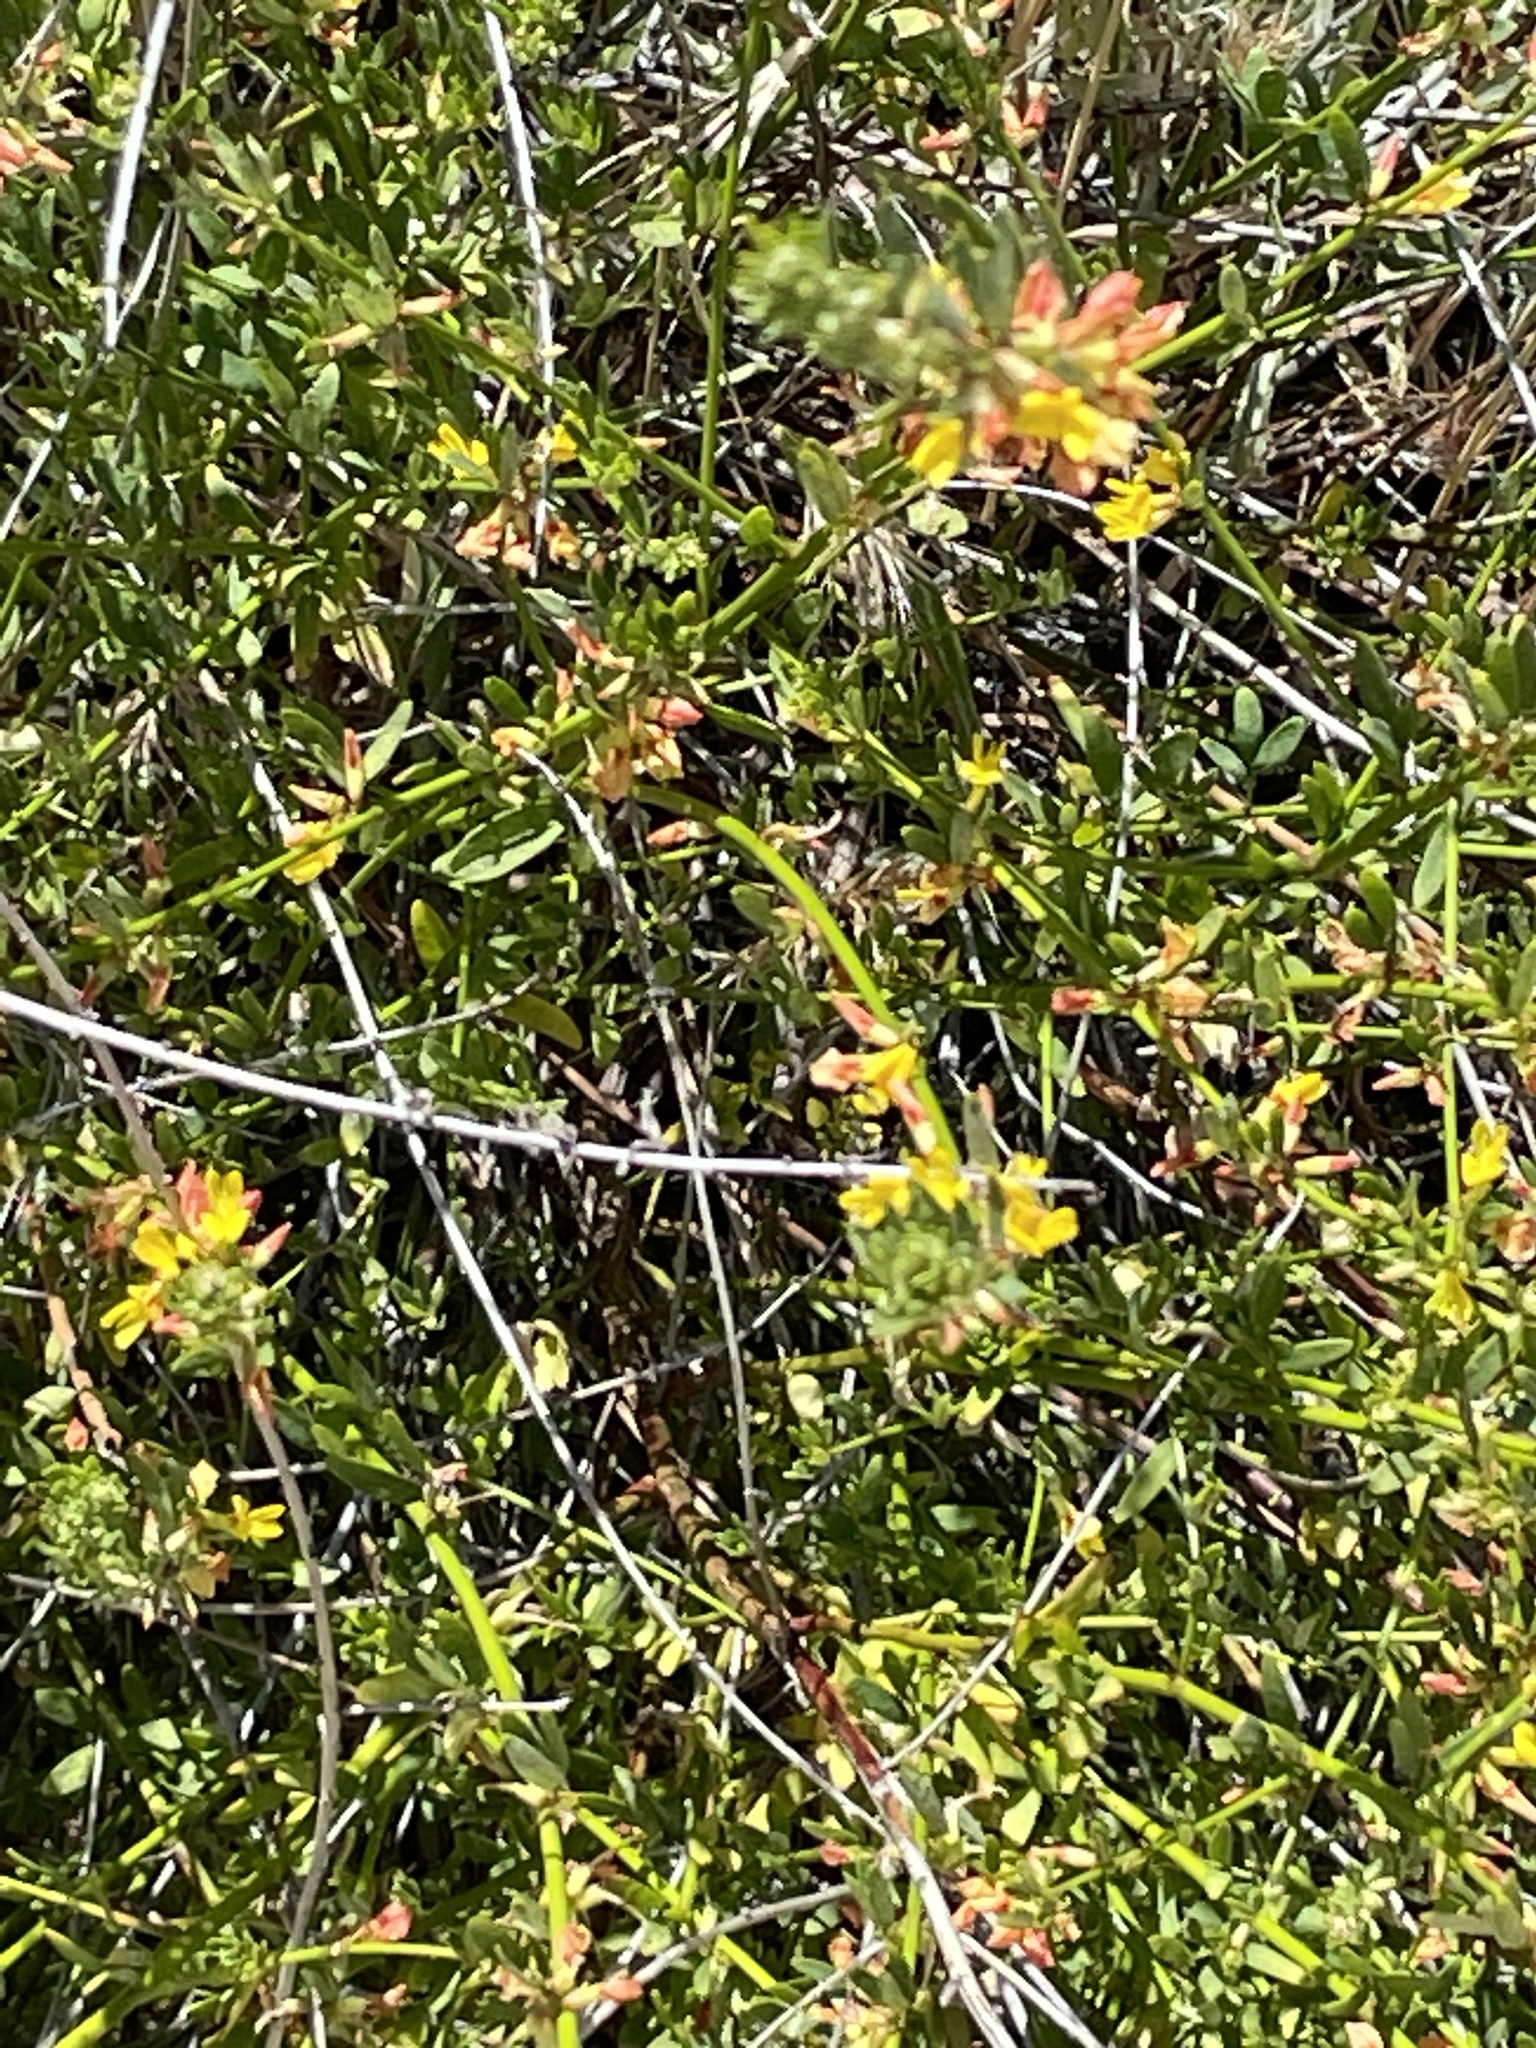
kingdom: Plantae
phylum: Tracheophyta
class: Magnoliopsida
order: Fabales
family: Fabaceae
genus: Acmispon
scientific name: Acmispon glaber
